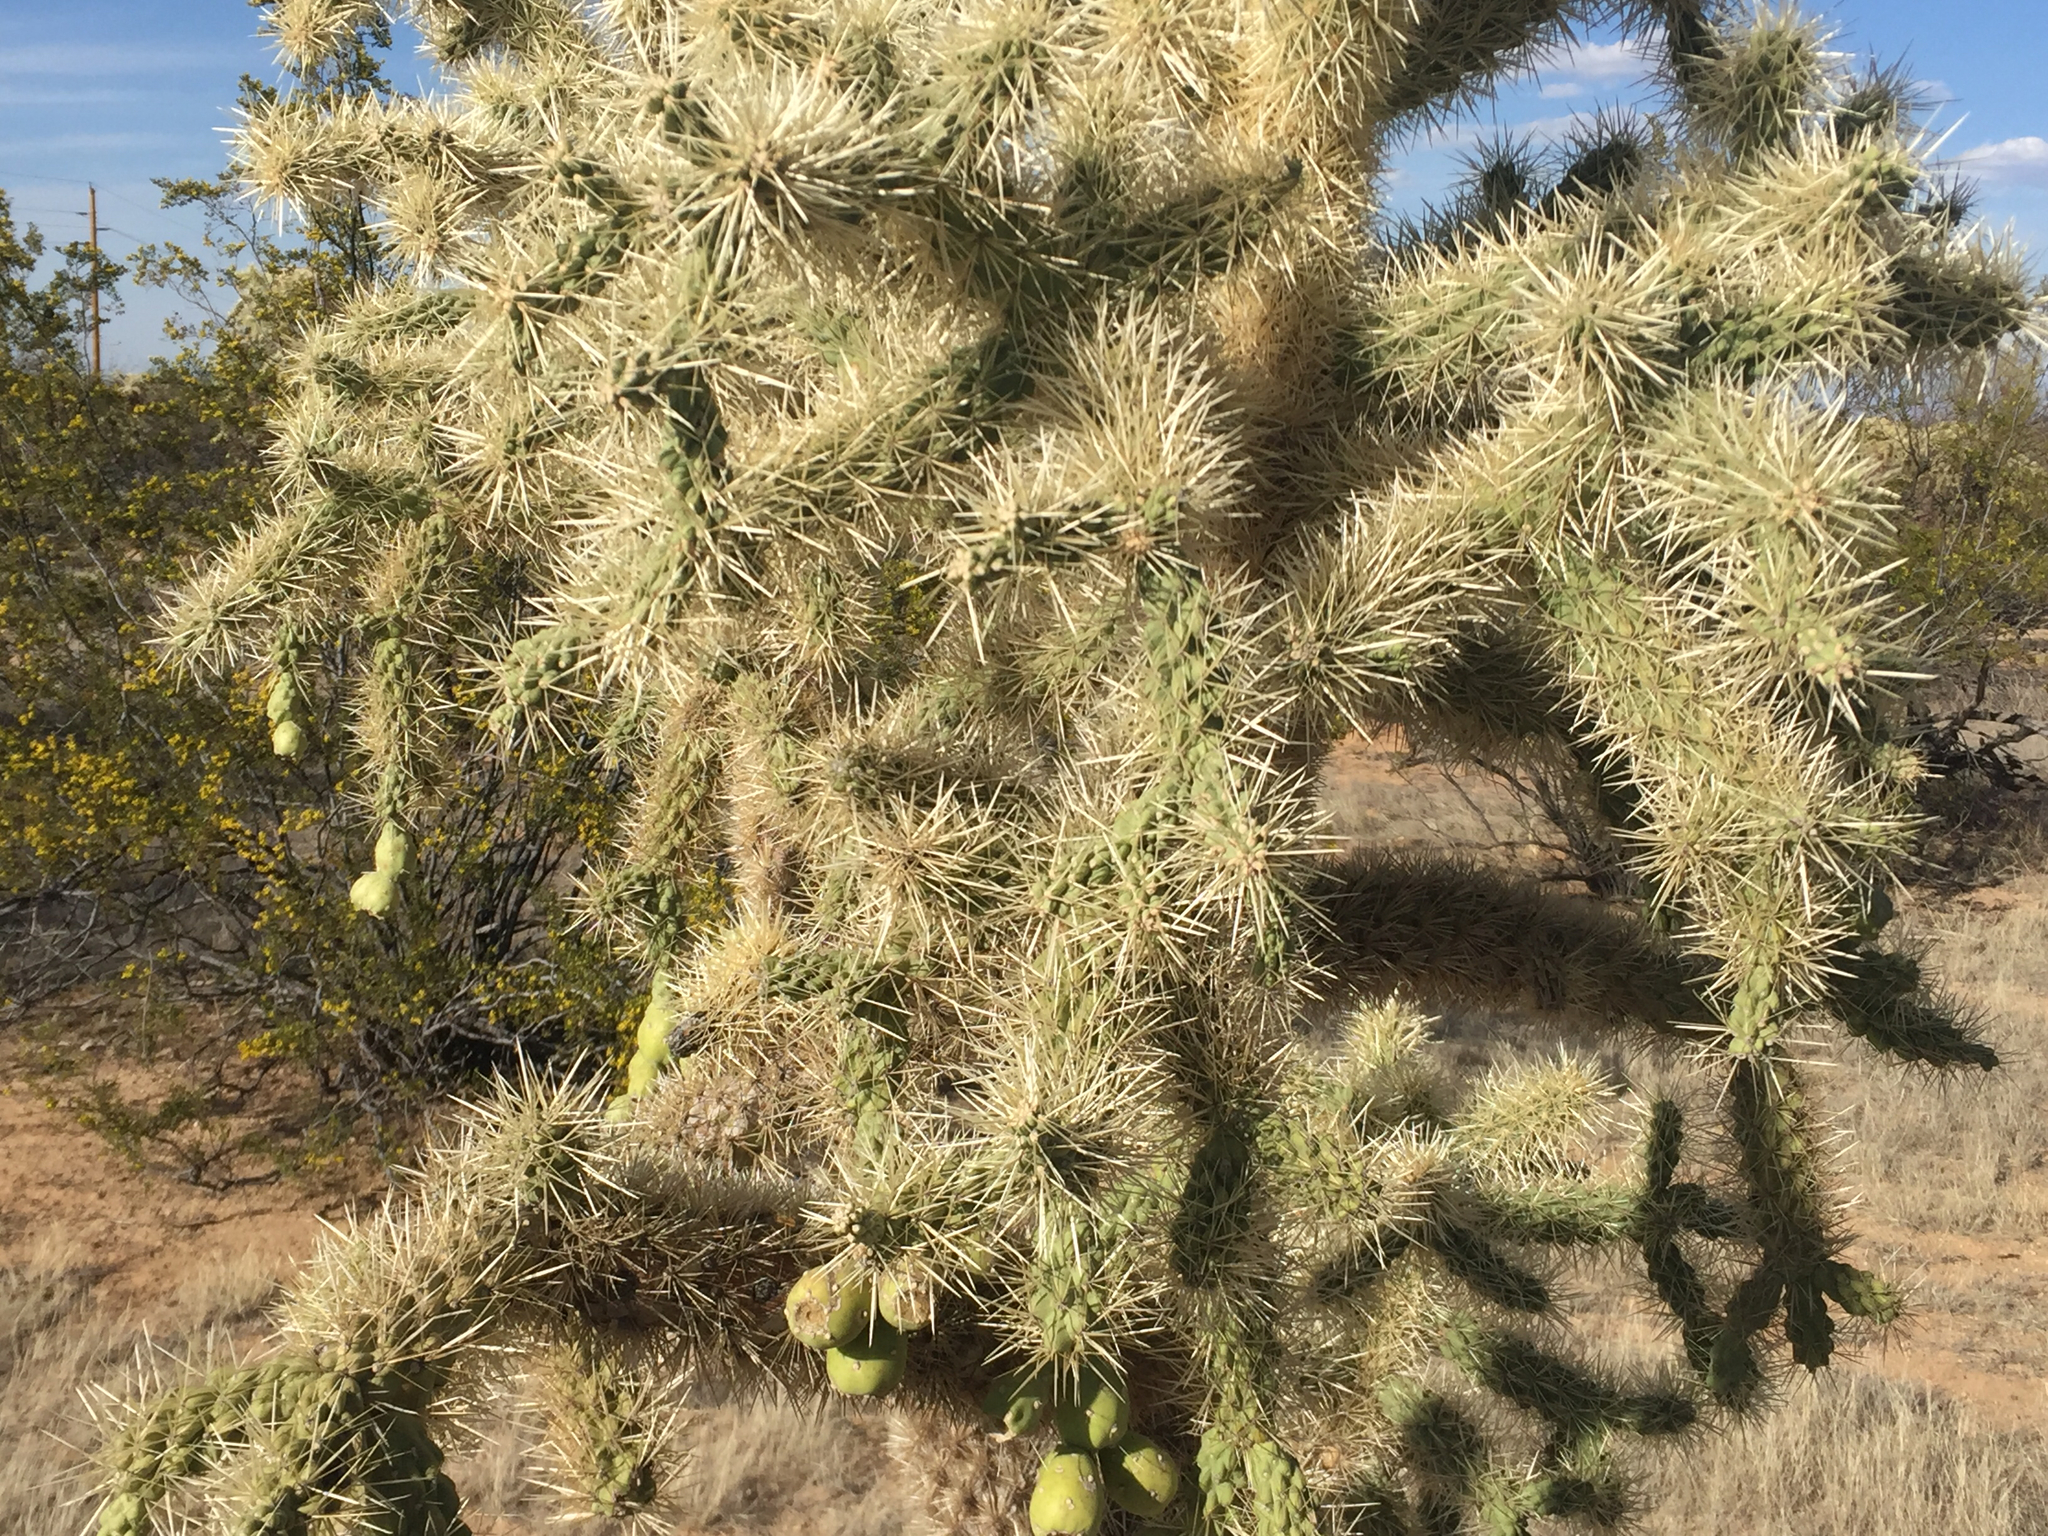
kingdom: Plantae
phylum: Tracheophyta
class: Magnoliopsida
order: Caryophyllales
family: Cactaceae
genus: Cylindropuntia
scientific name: Cylindropuntia fulgida
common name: Jumping cholla
